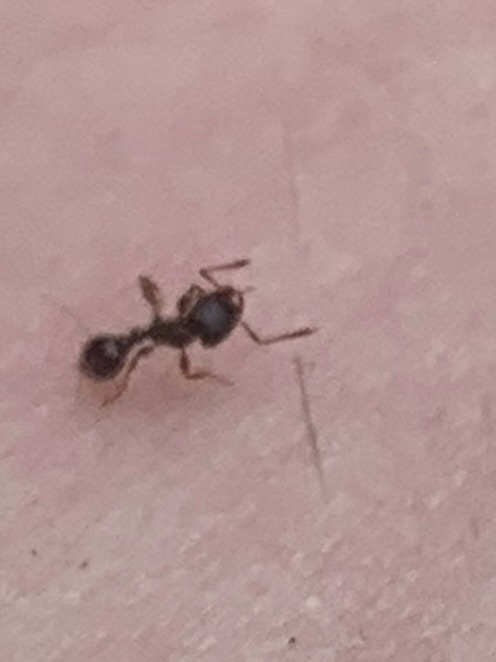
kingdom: Animalia
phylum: Arthropoda
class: Insecta
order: Hymenoptera
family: Formicidae
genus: Tetramorium
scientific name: Tetramorium immigrans
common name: Pavement ant
